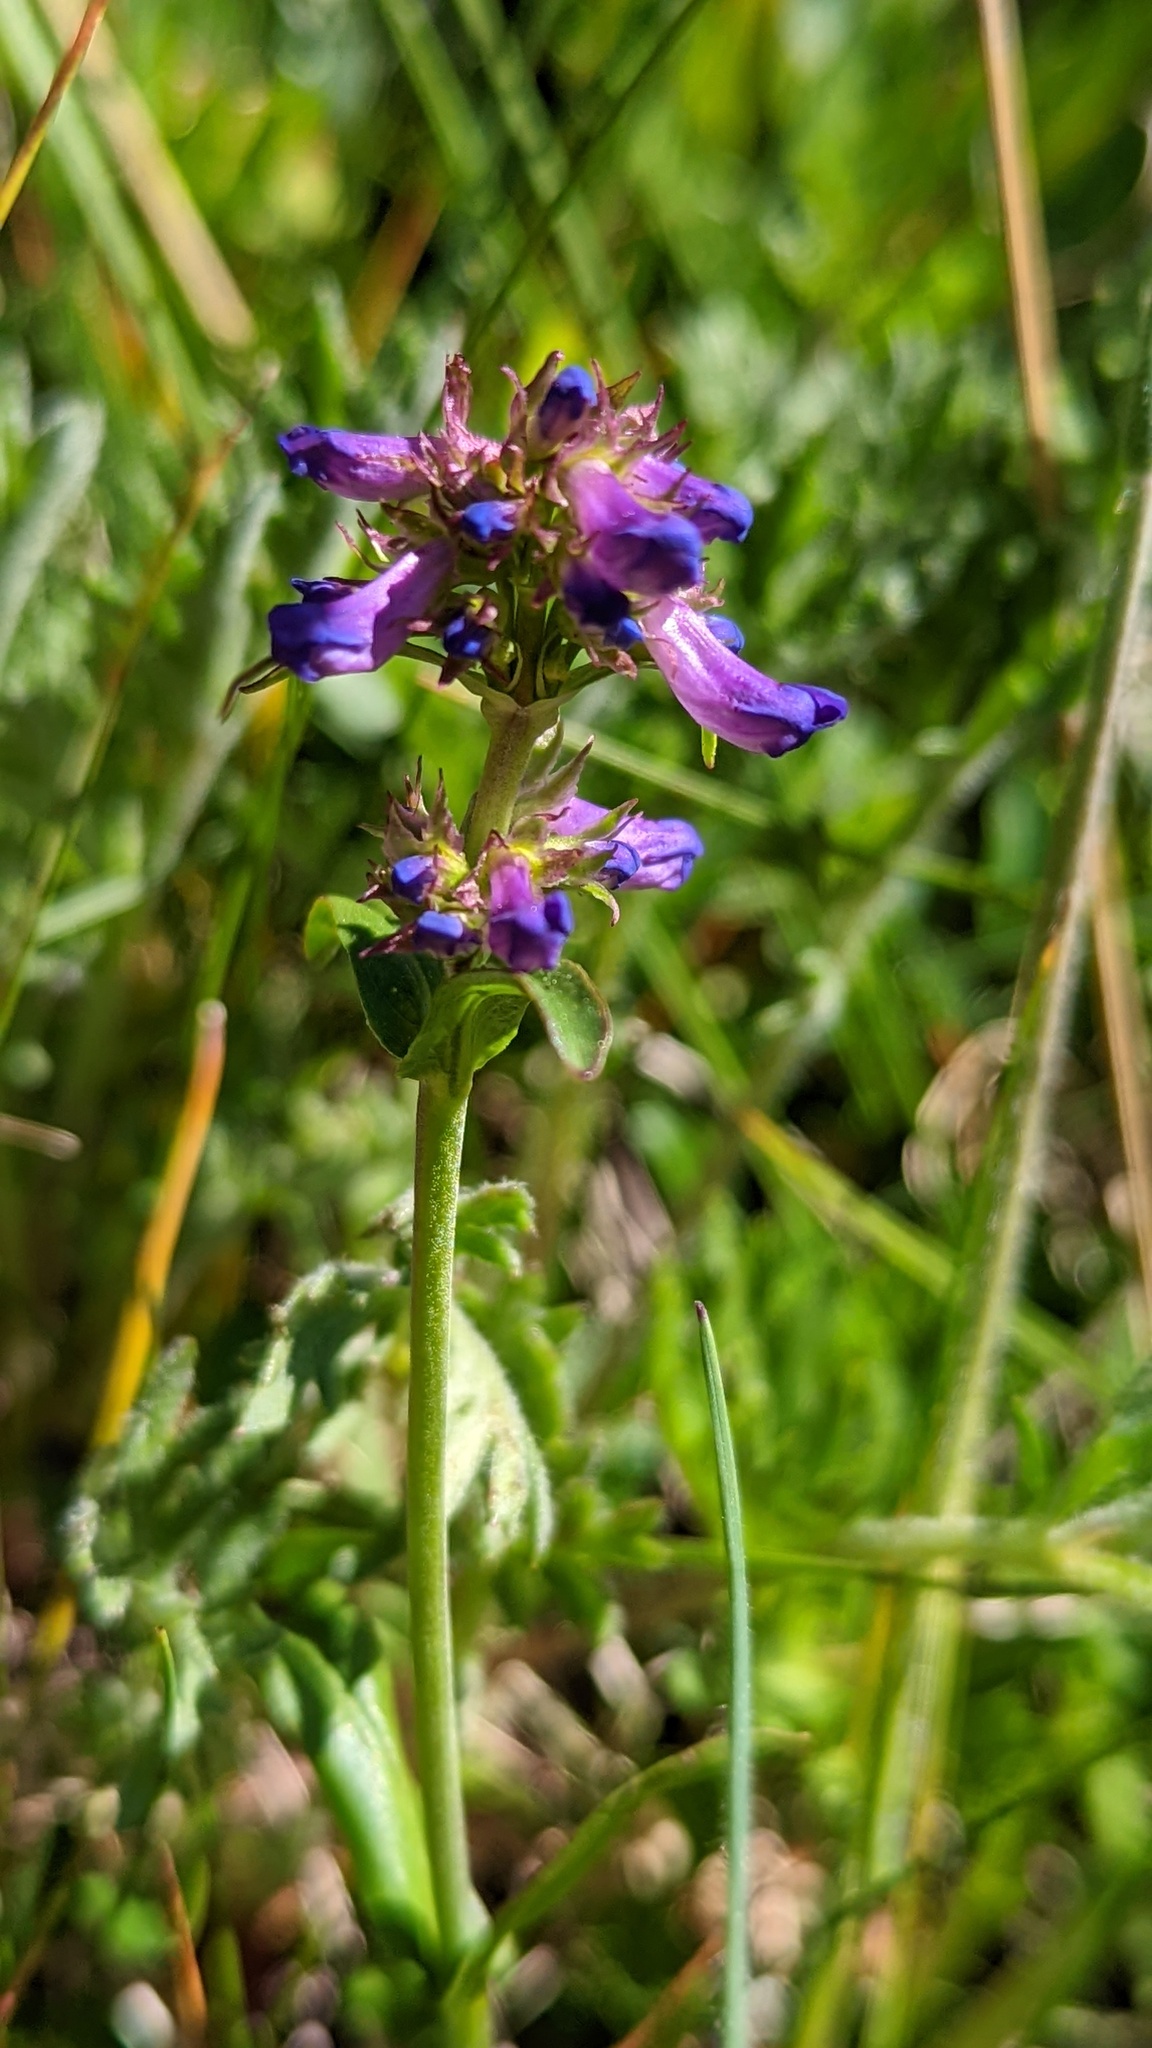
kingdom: Plantae
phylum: Tracheophyta
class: Magnoliopsida
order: Lamiales
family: Plantaginaceae
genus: Penstemon
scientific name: Penstemon procerus
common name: Small-flower penstemon
